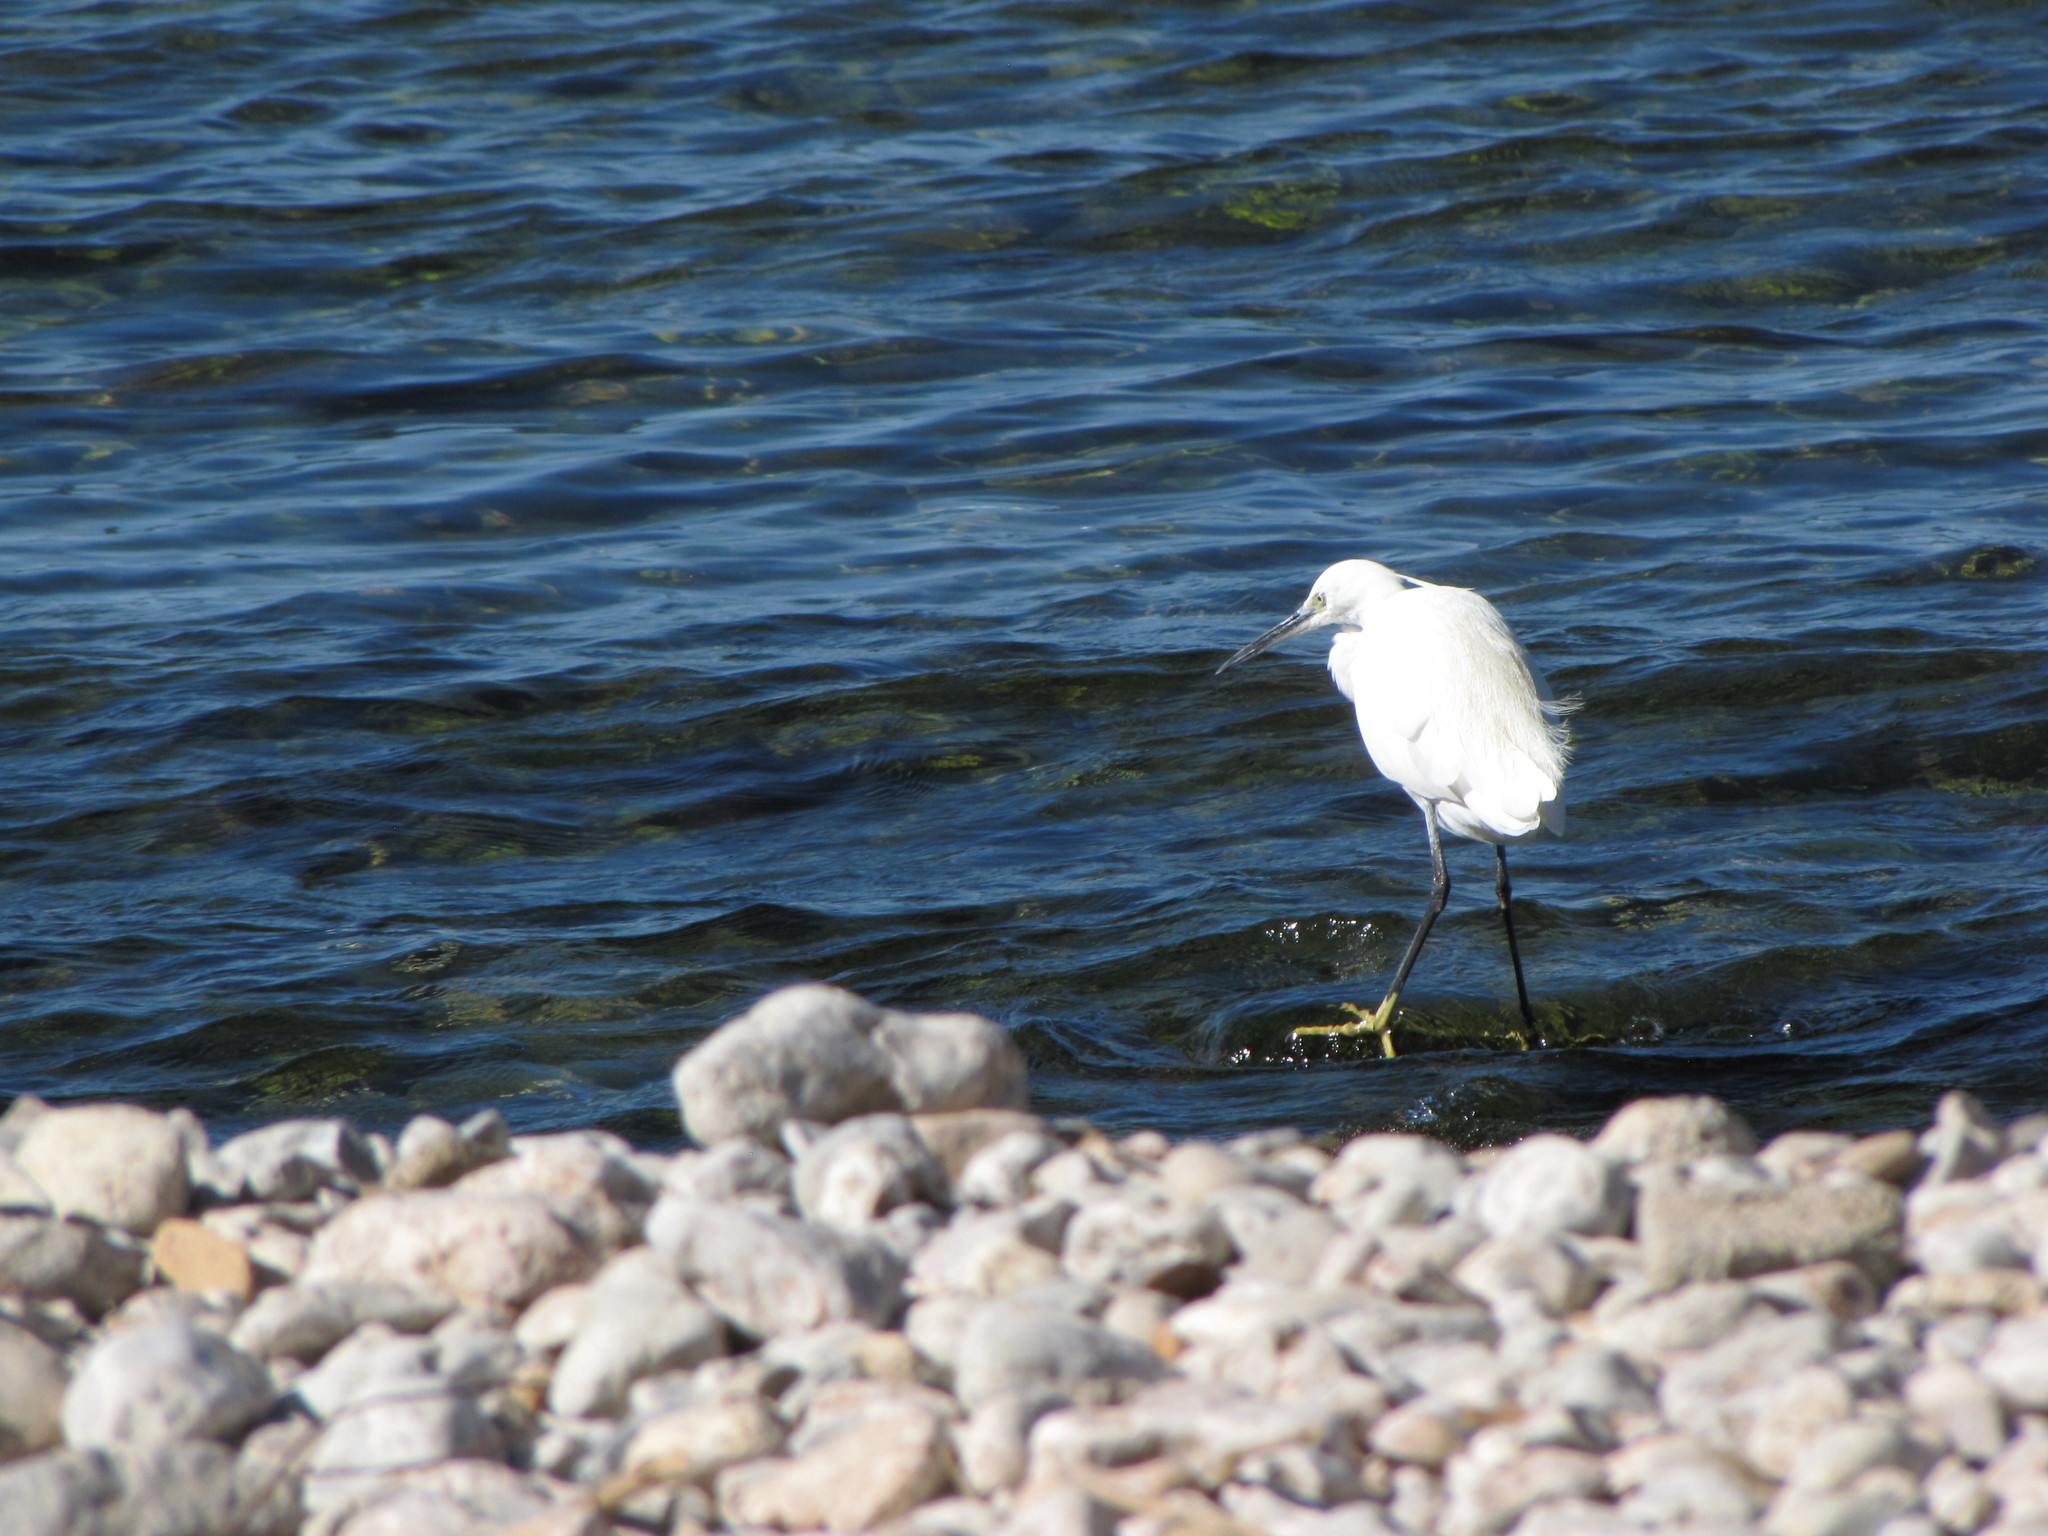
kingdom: Animalia
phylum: Chordata
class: Aves
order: Pelecaniformes
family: Ardeidae
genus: Egretta
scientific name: Egretta garzetta
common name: Little egret
